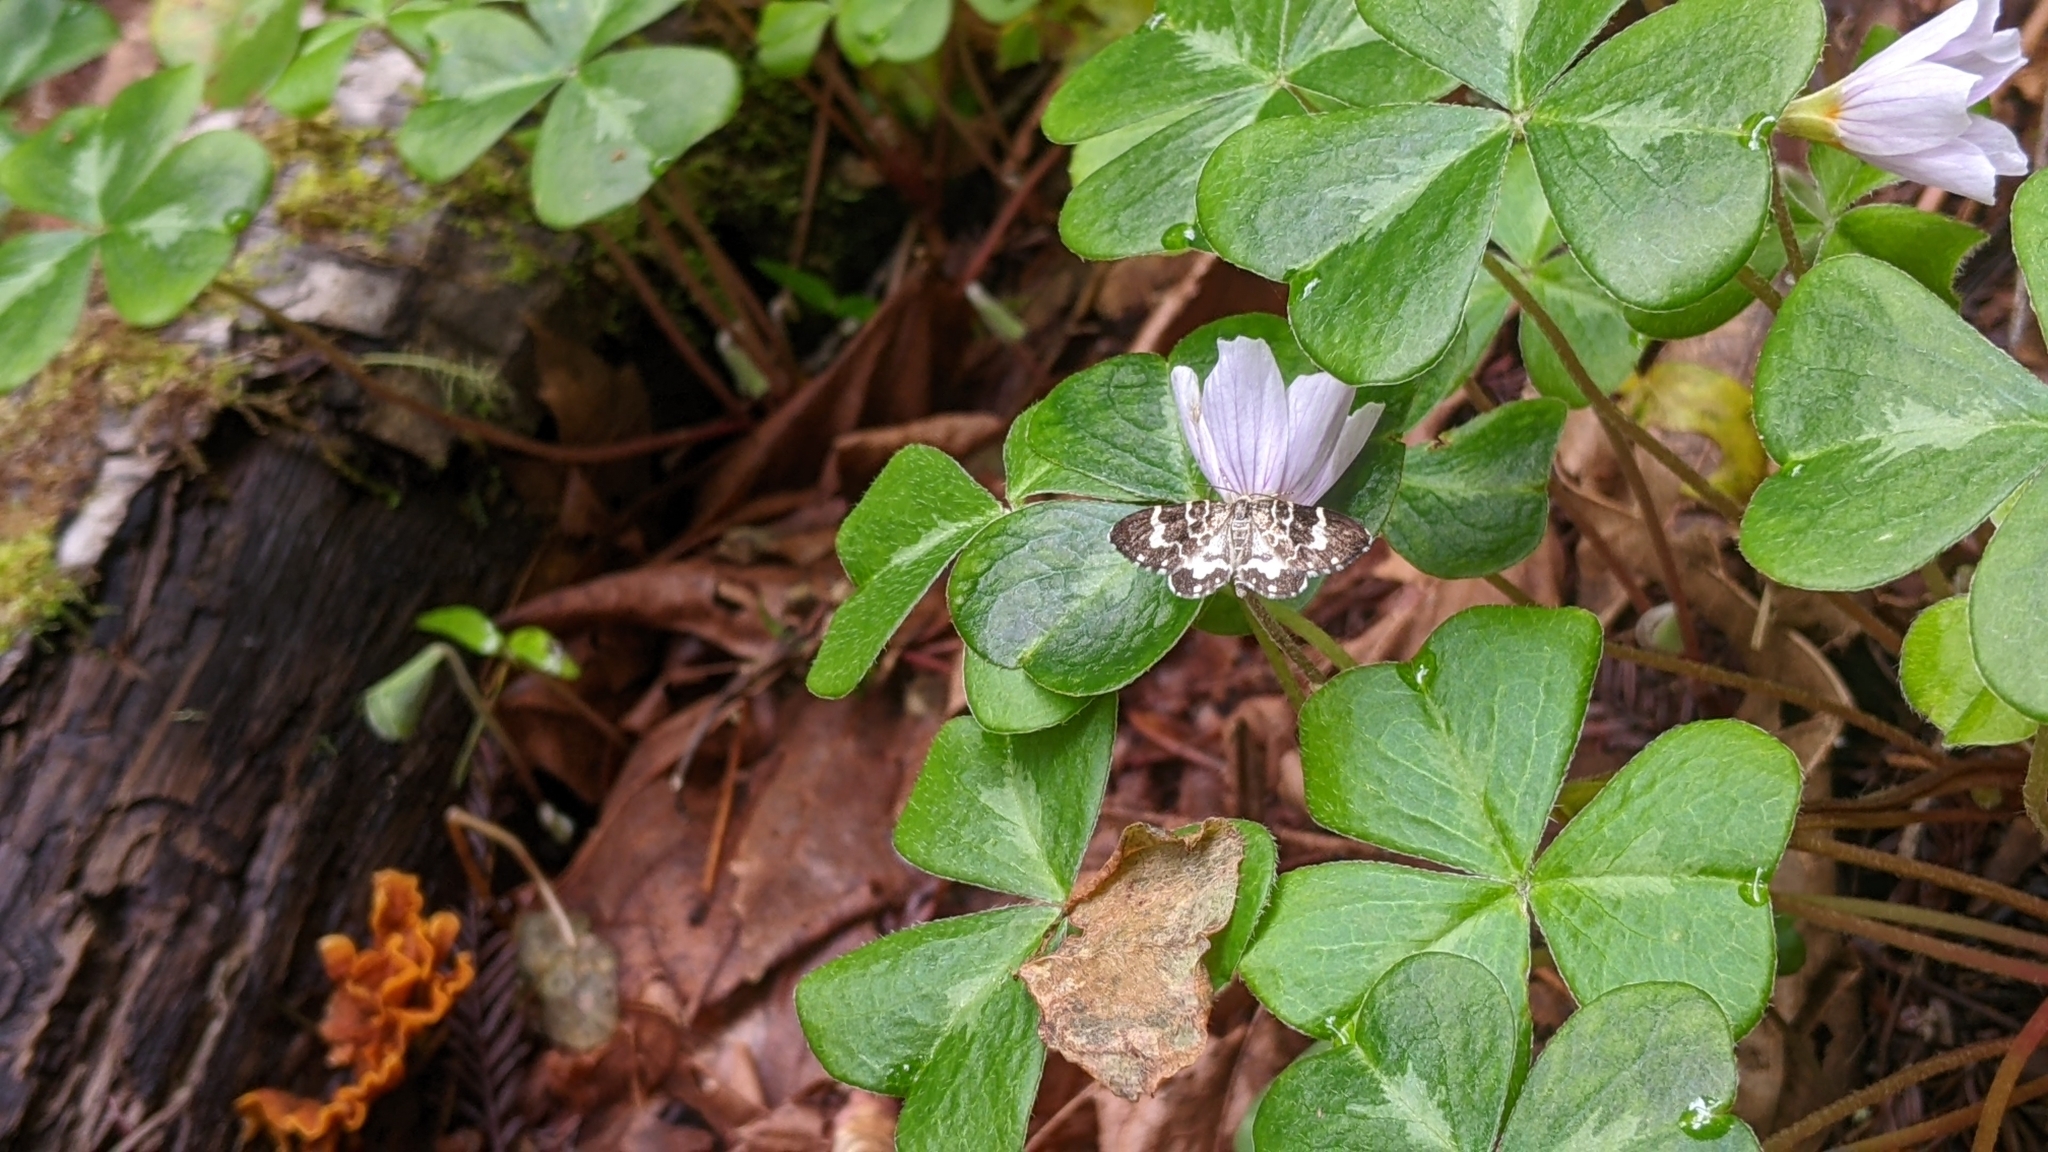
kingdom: Animalia
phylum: Arthropoda
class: Insecta
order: Lepidoptera
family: Geometridae
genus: Trichodezia
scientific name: Trichodezia californiata
